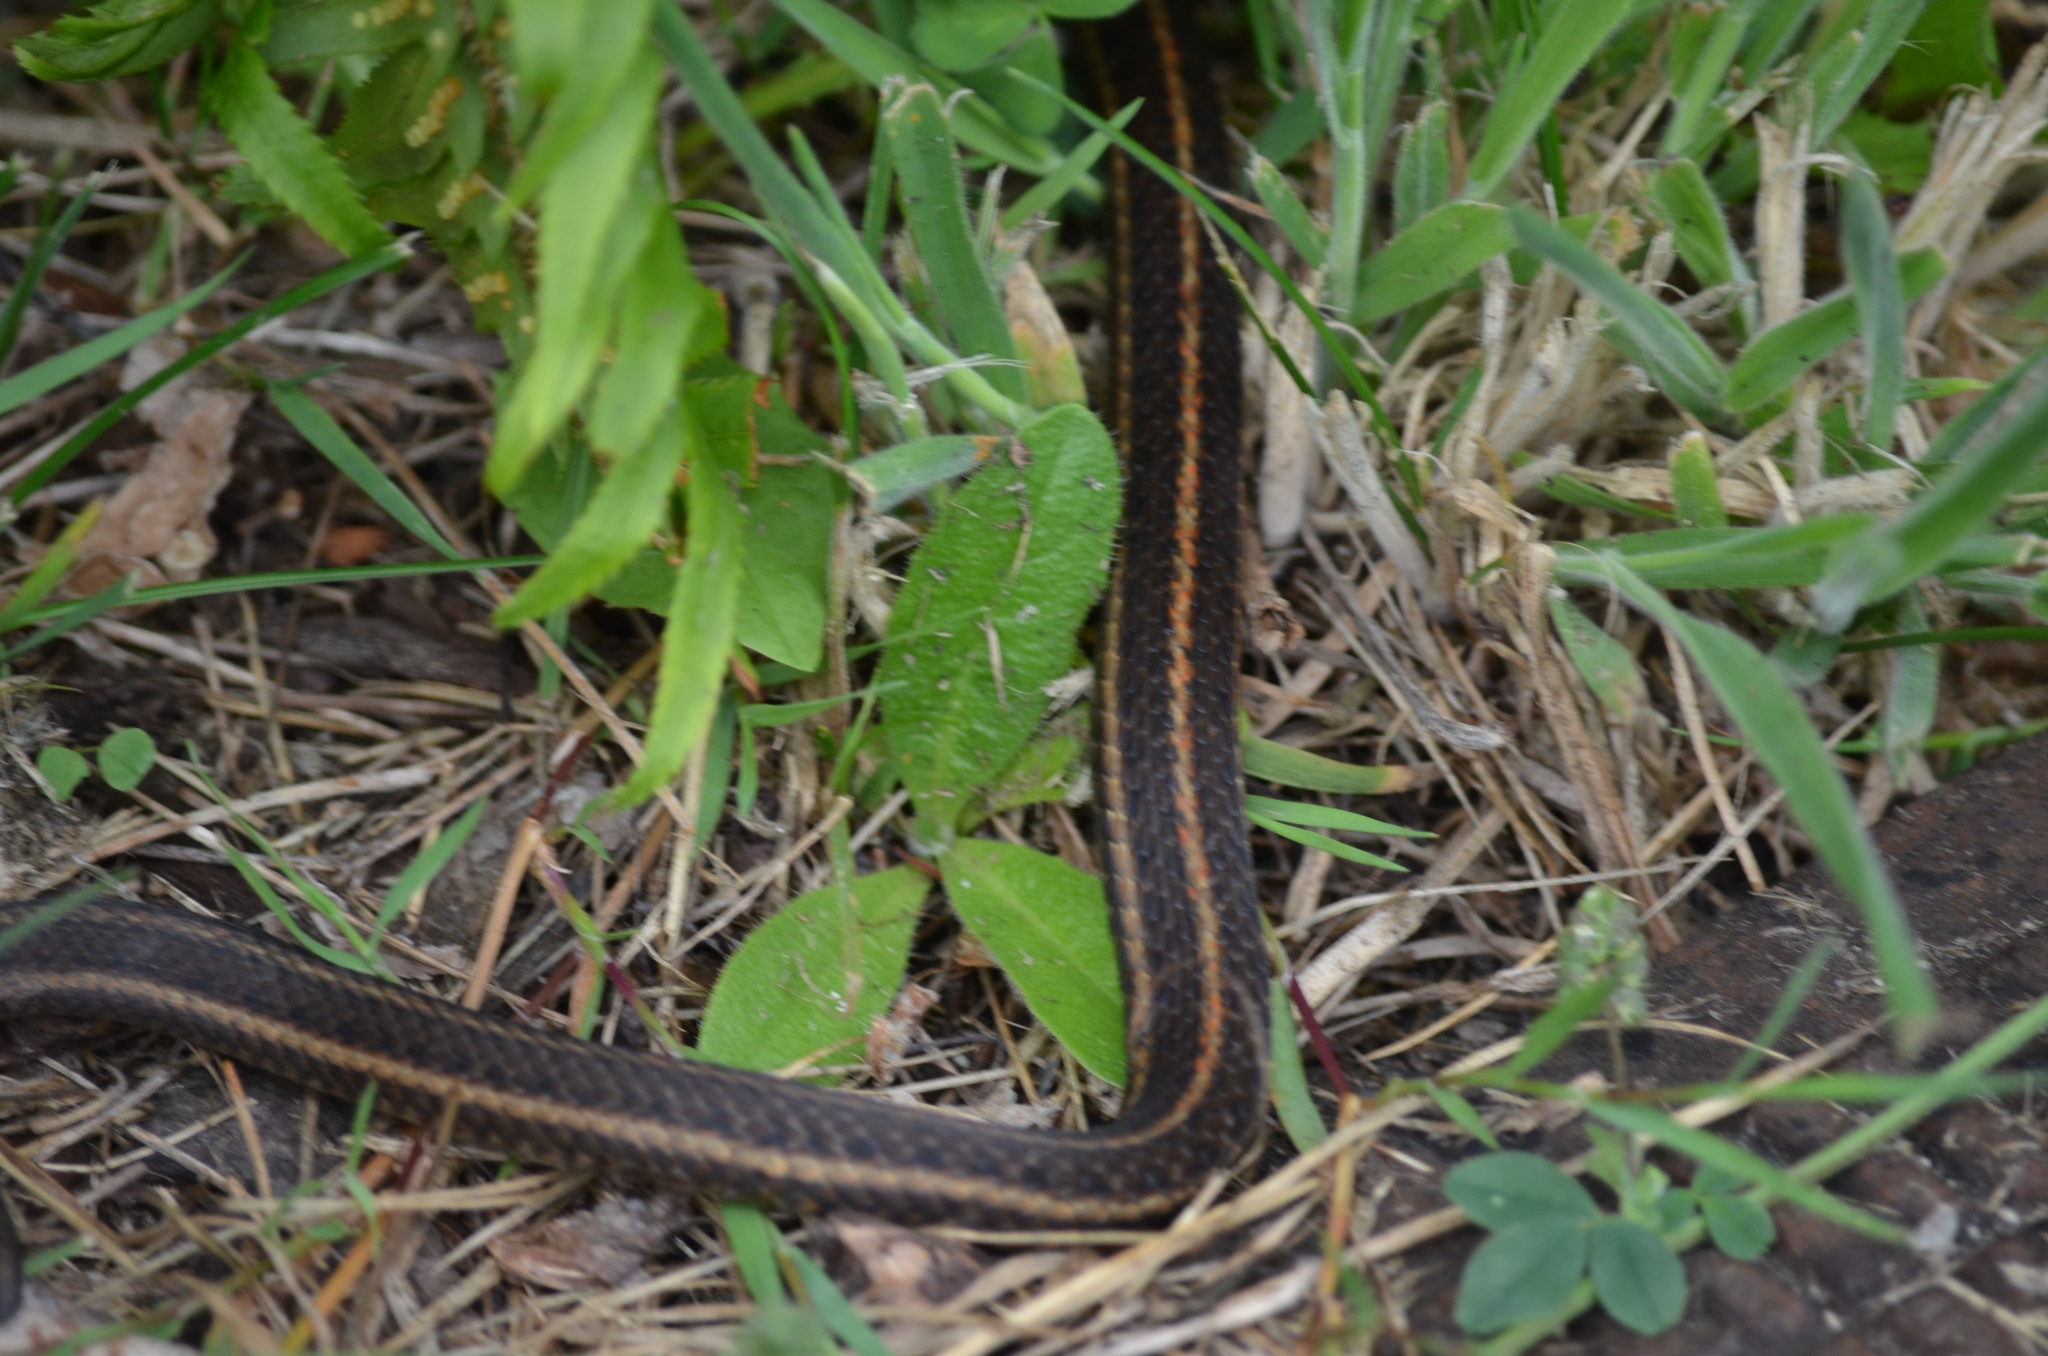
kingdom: Animalia
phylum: Chordata
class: Squamata
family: Colubridae
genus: Thamnophis
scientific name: Thamnophis ordinoides
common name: Northwestern garter snake
